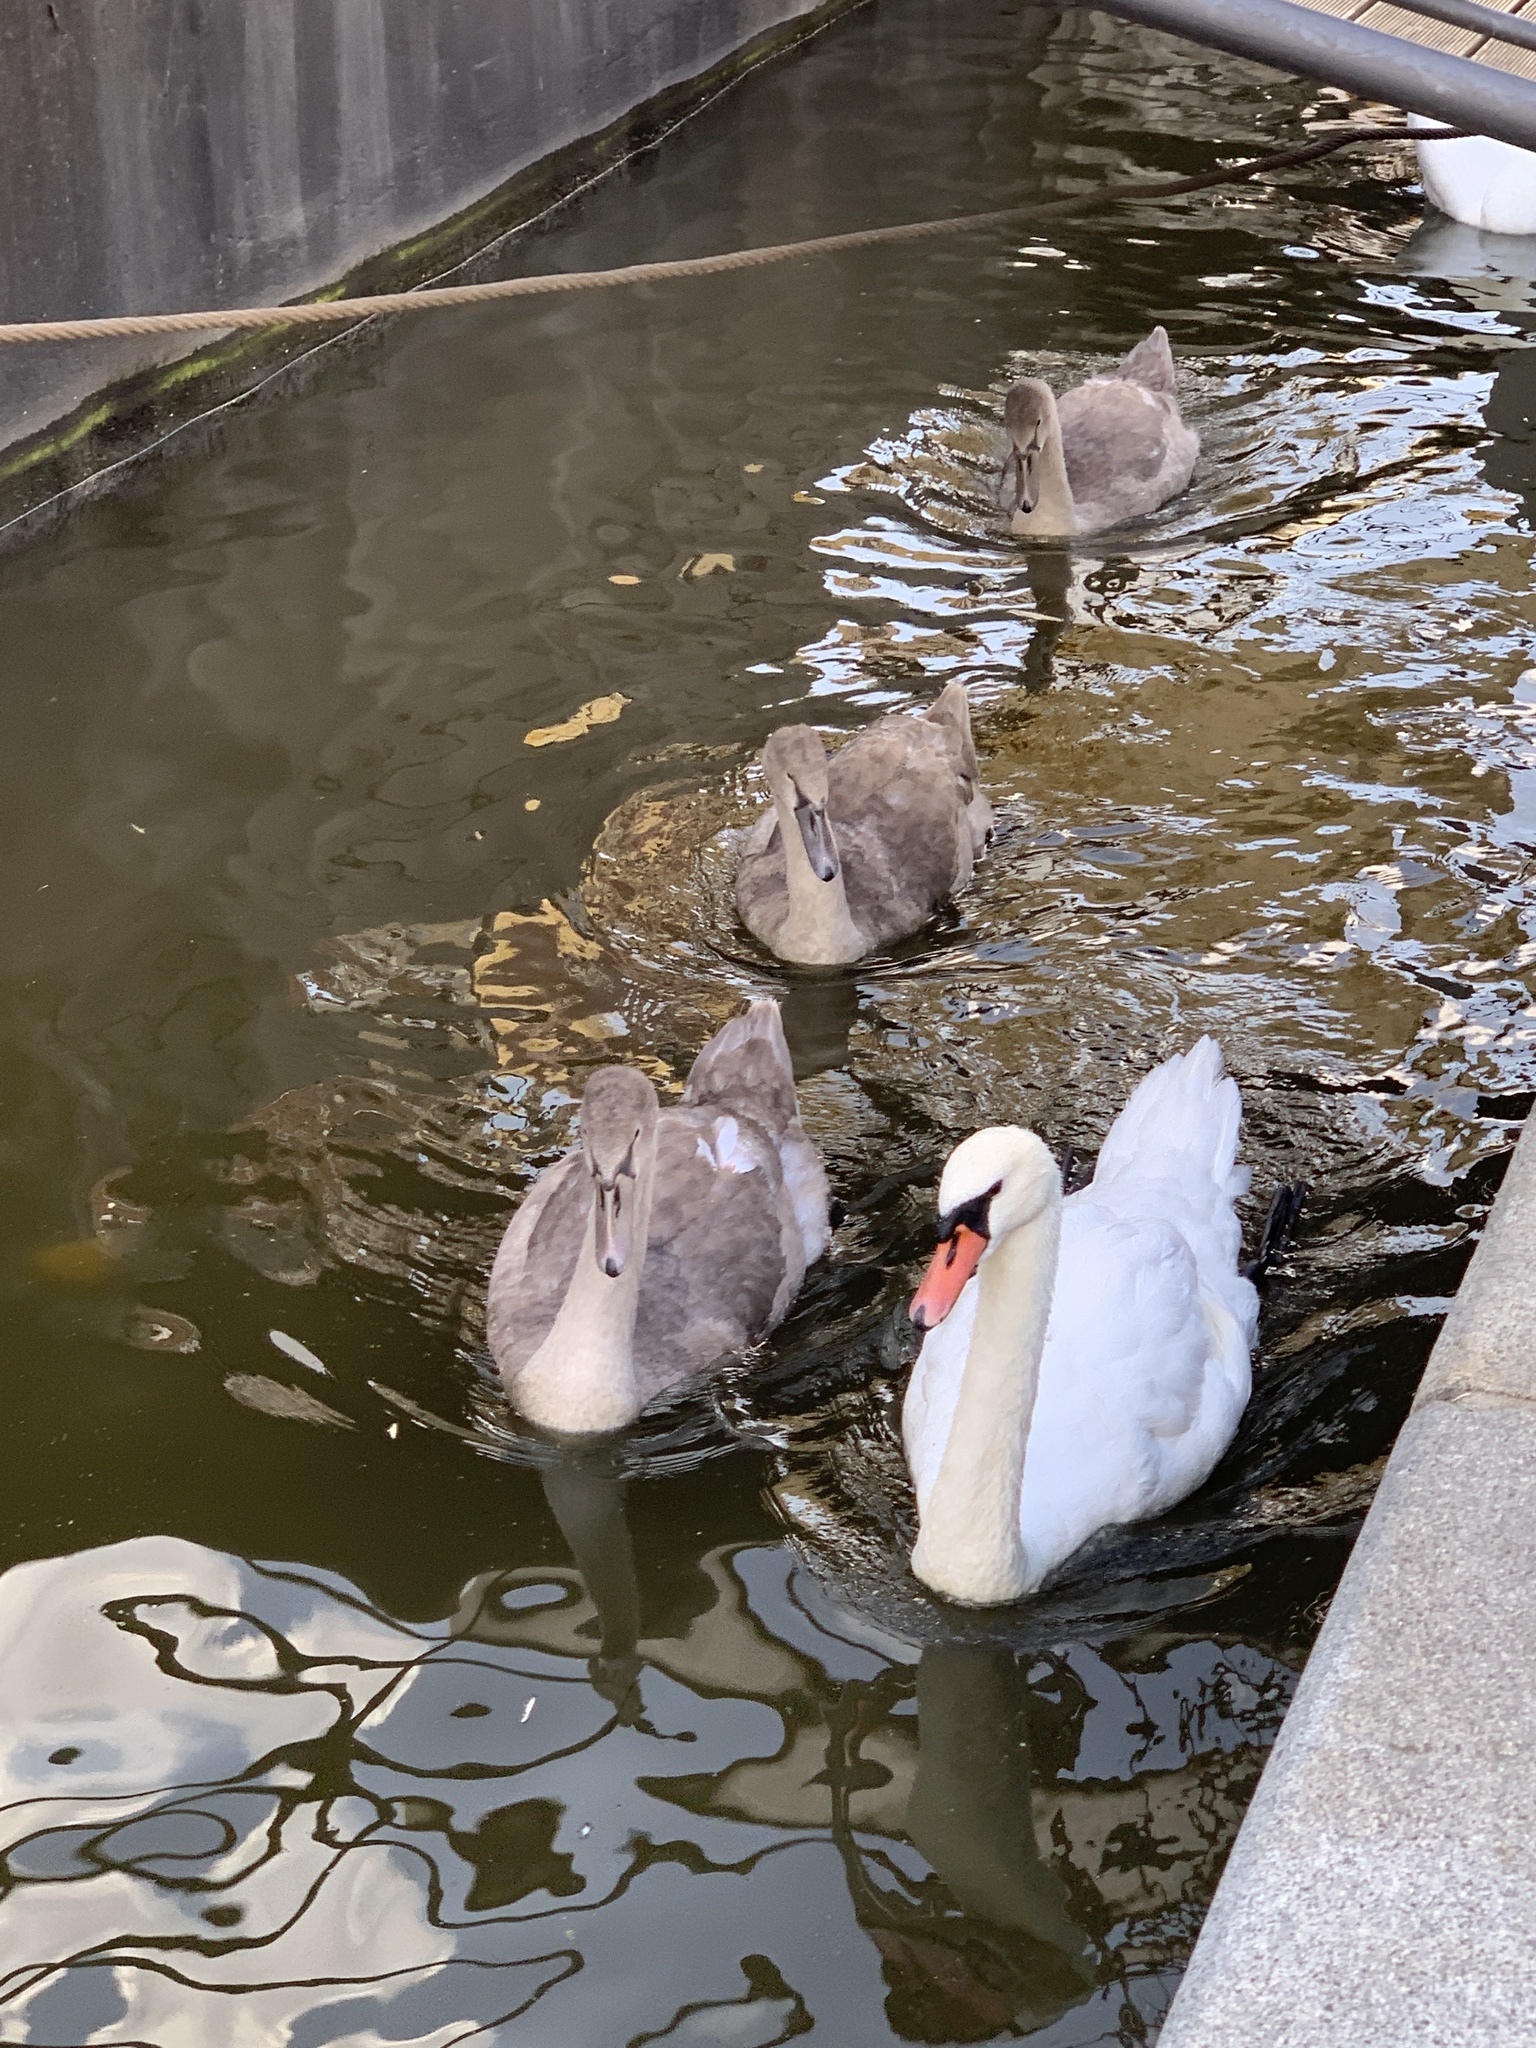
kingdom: Animalia
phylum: Chordata
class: Aves
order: Anseriformes
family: Anatidae
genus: Cygnus
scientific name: Cygnus olor
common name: Mute swan
